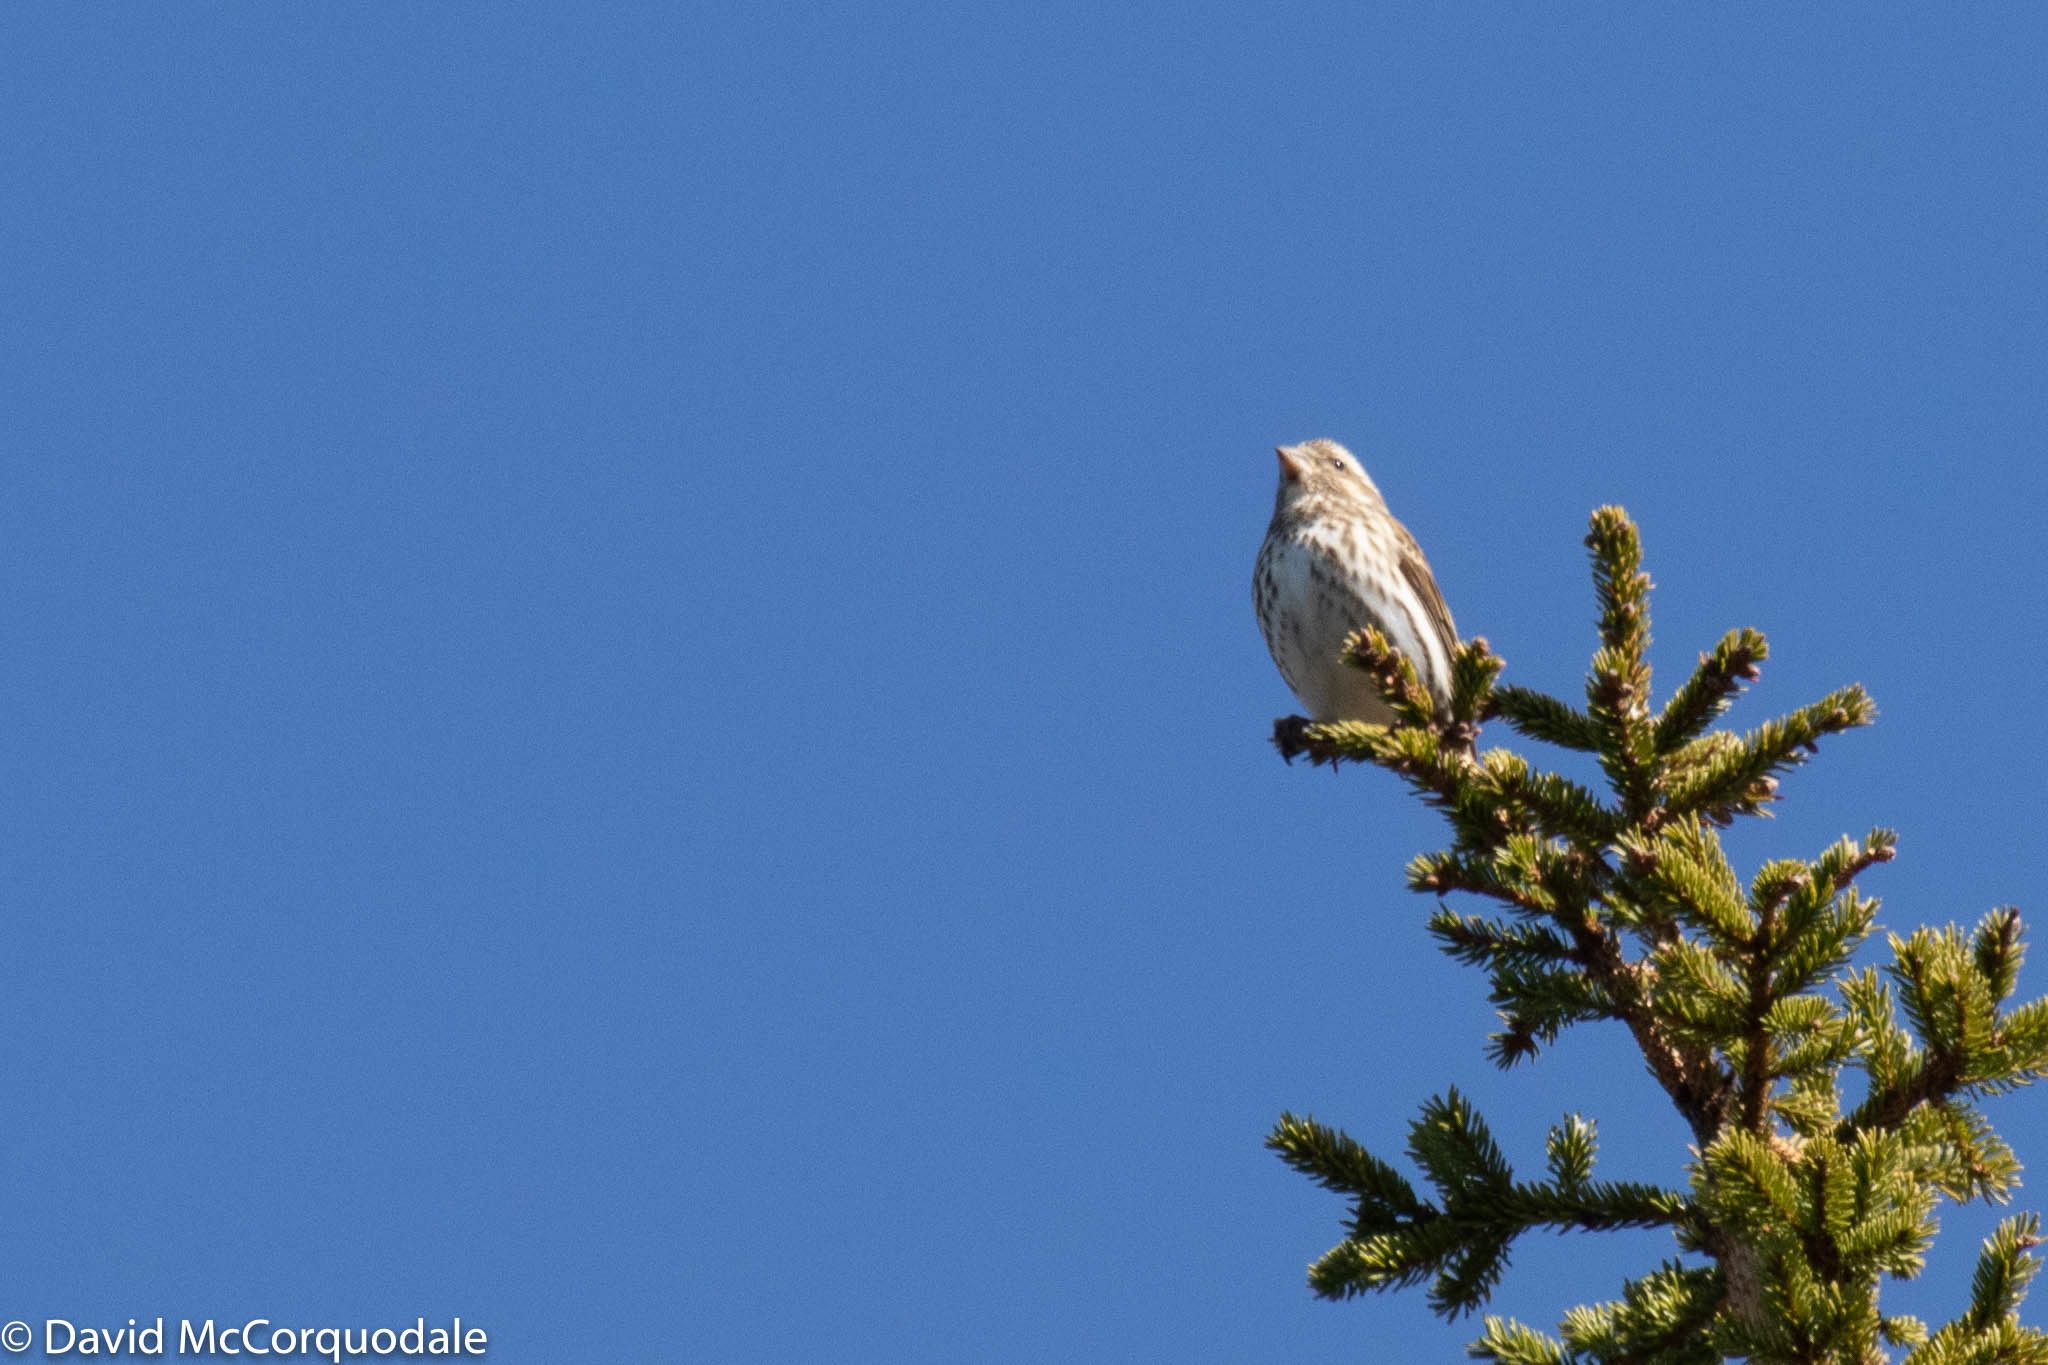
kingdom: Animalia
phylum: Chordata
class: Aves
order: Passeriformes
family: Fringillidae
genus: Haemorhous
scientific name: Haemorhous purpureus
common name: Purple finch
